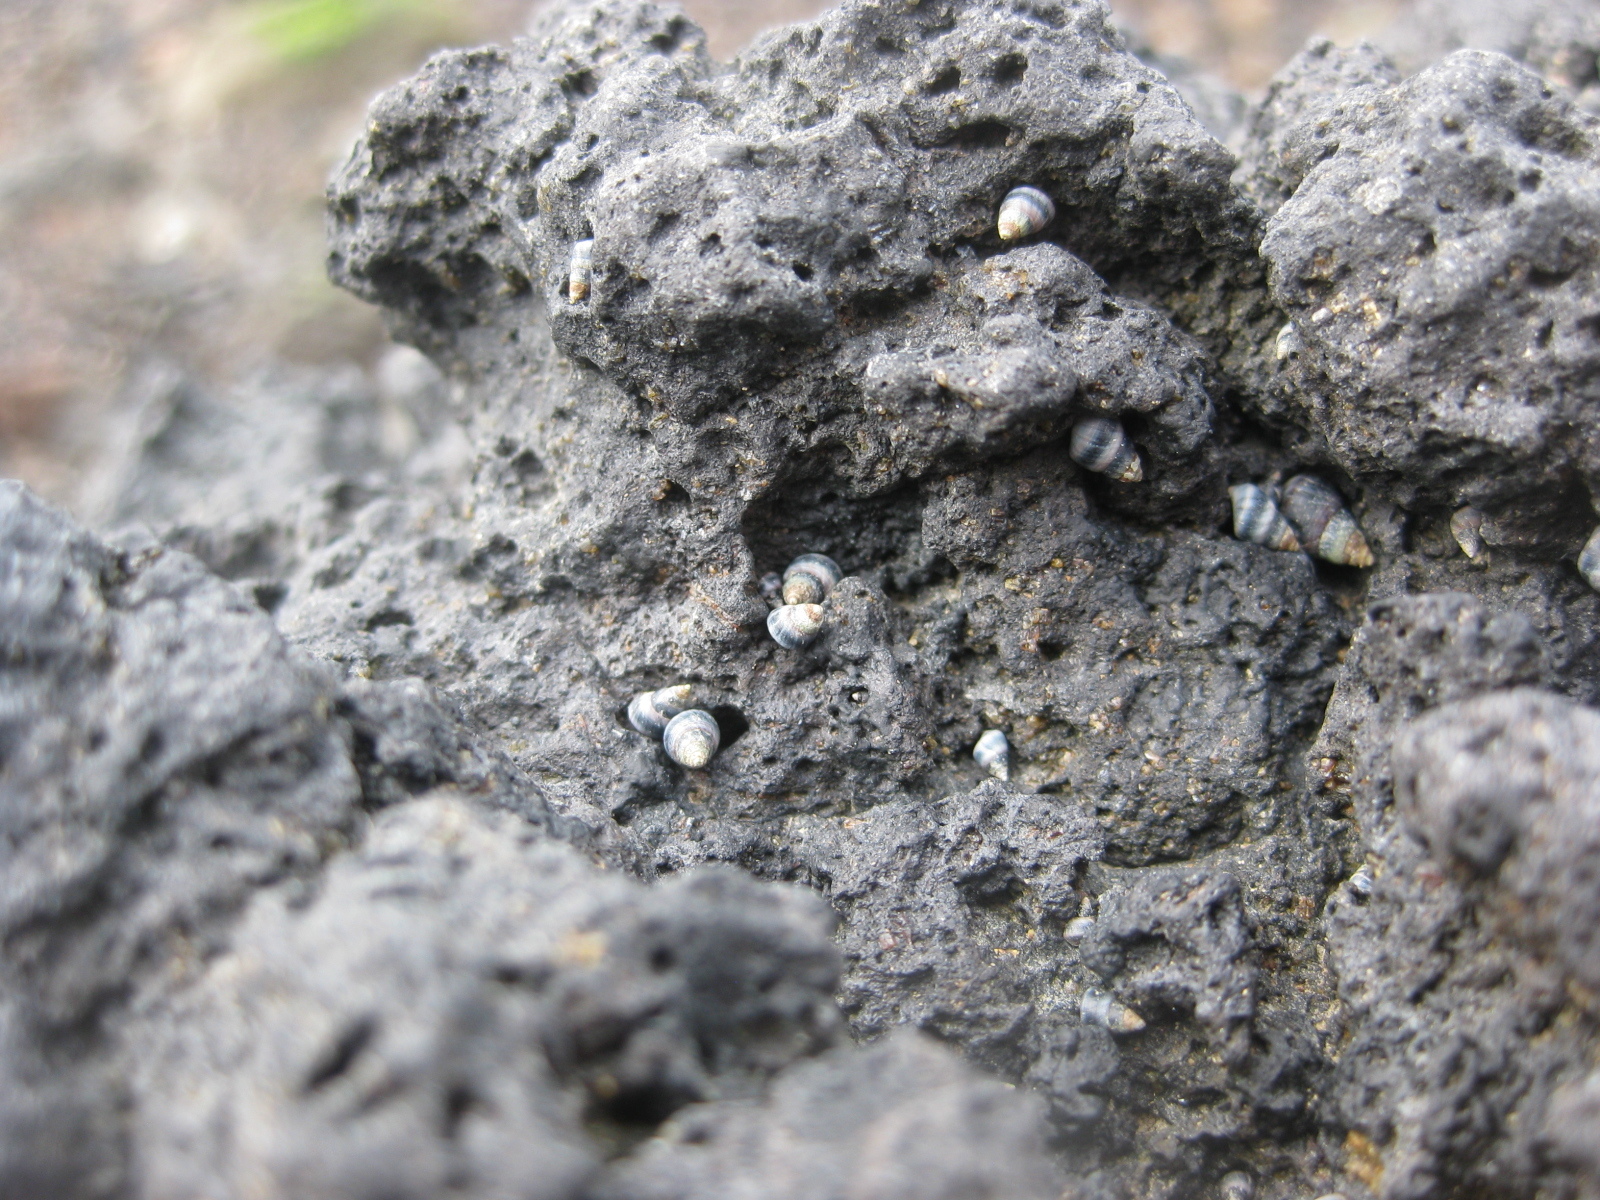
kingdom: Animalia
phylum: Mollusca
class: Gastropoda
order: Littorinimorpha
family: Littorinidae
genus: Austrolittorina
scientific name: Austrolittorina antipodum
